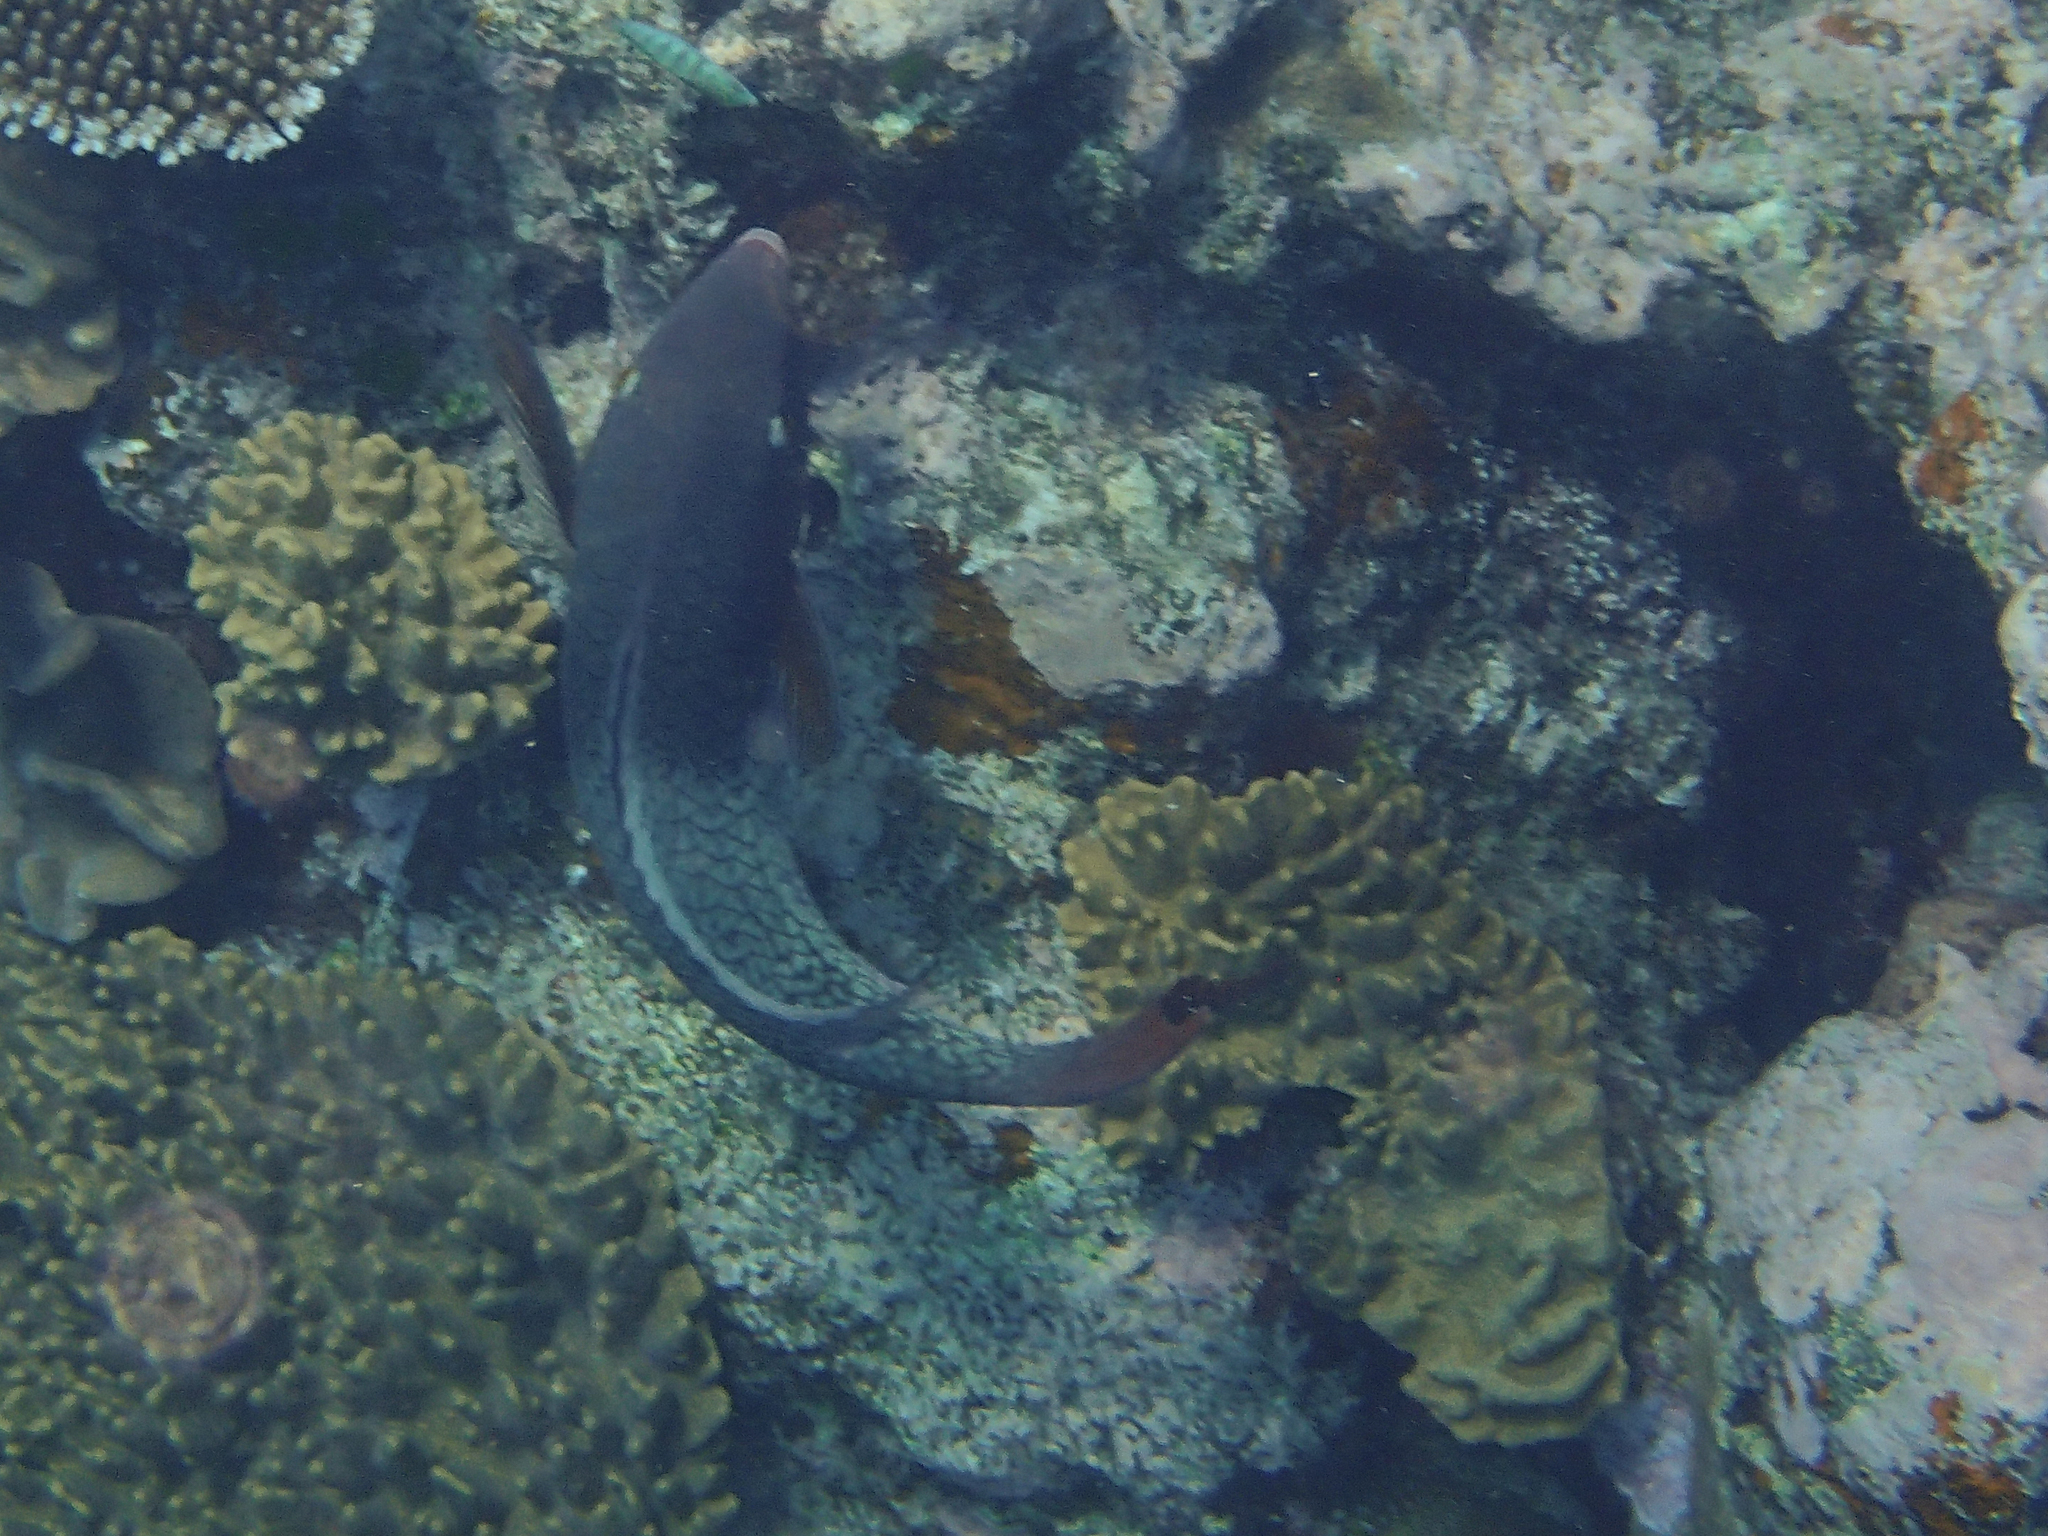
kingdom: Animalia
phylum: Chordata
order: Perciformes
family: Scaridae
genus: Scarus
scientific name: Scarus rubroviolaceus
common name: Ember parrotfish
